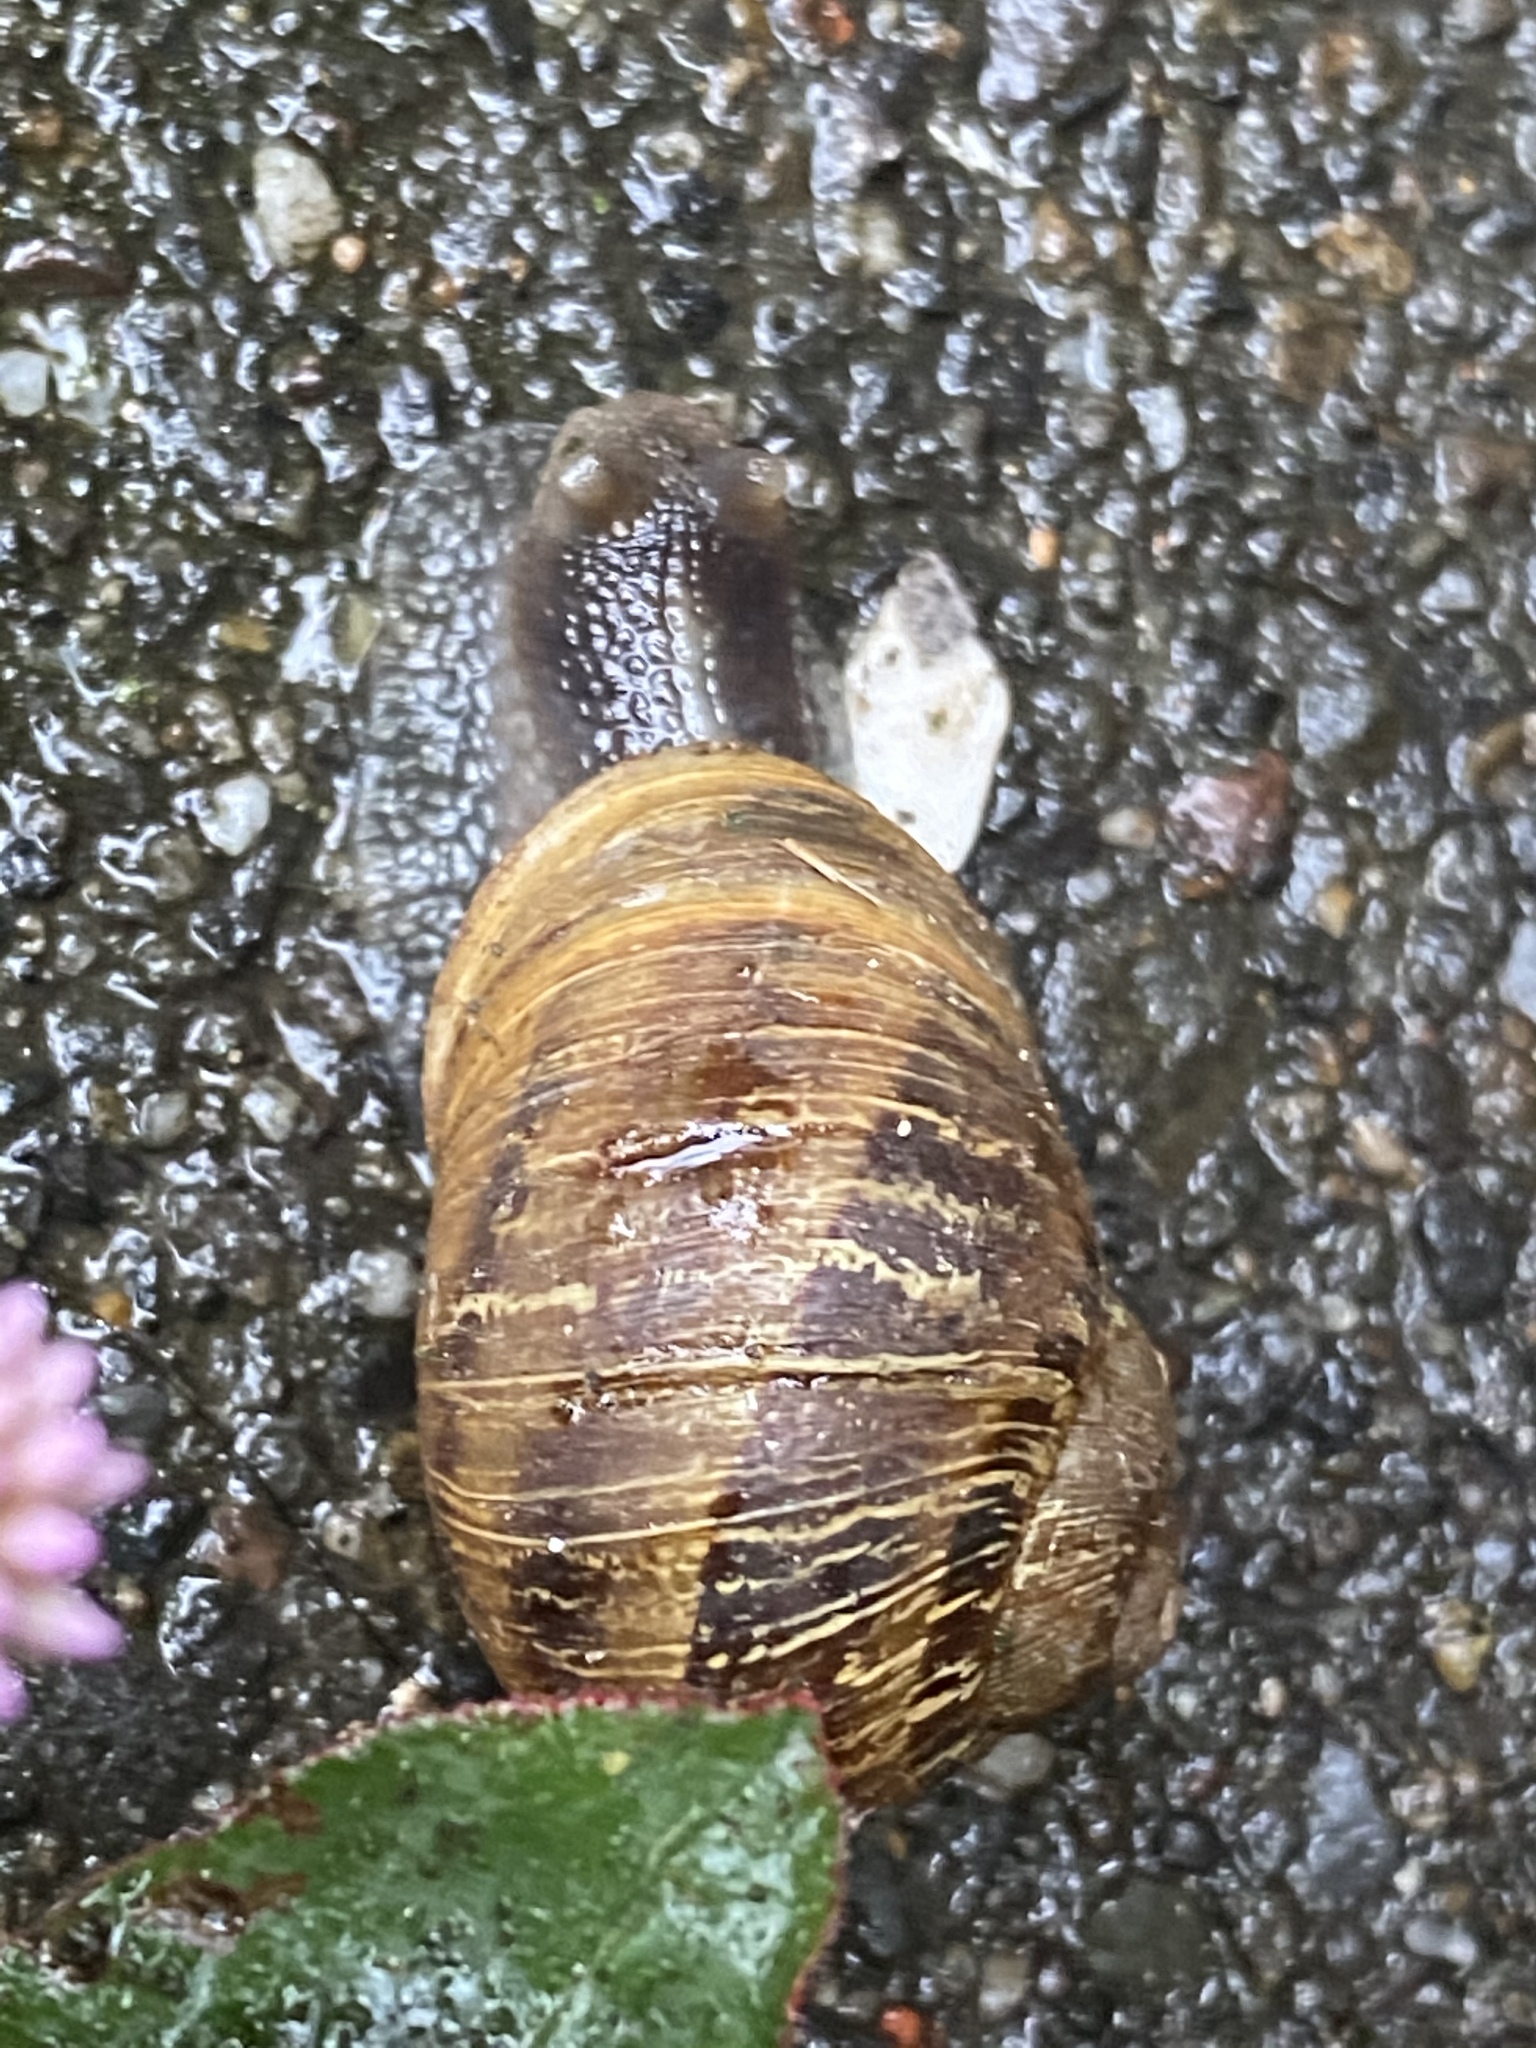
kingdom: Animalia
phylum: Mollusca
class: Gastropoda
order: Stylommatophora
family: Helicidae
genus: Cornu
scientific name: Cornu aspersum
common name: Brown garden snail
